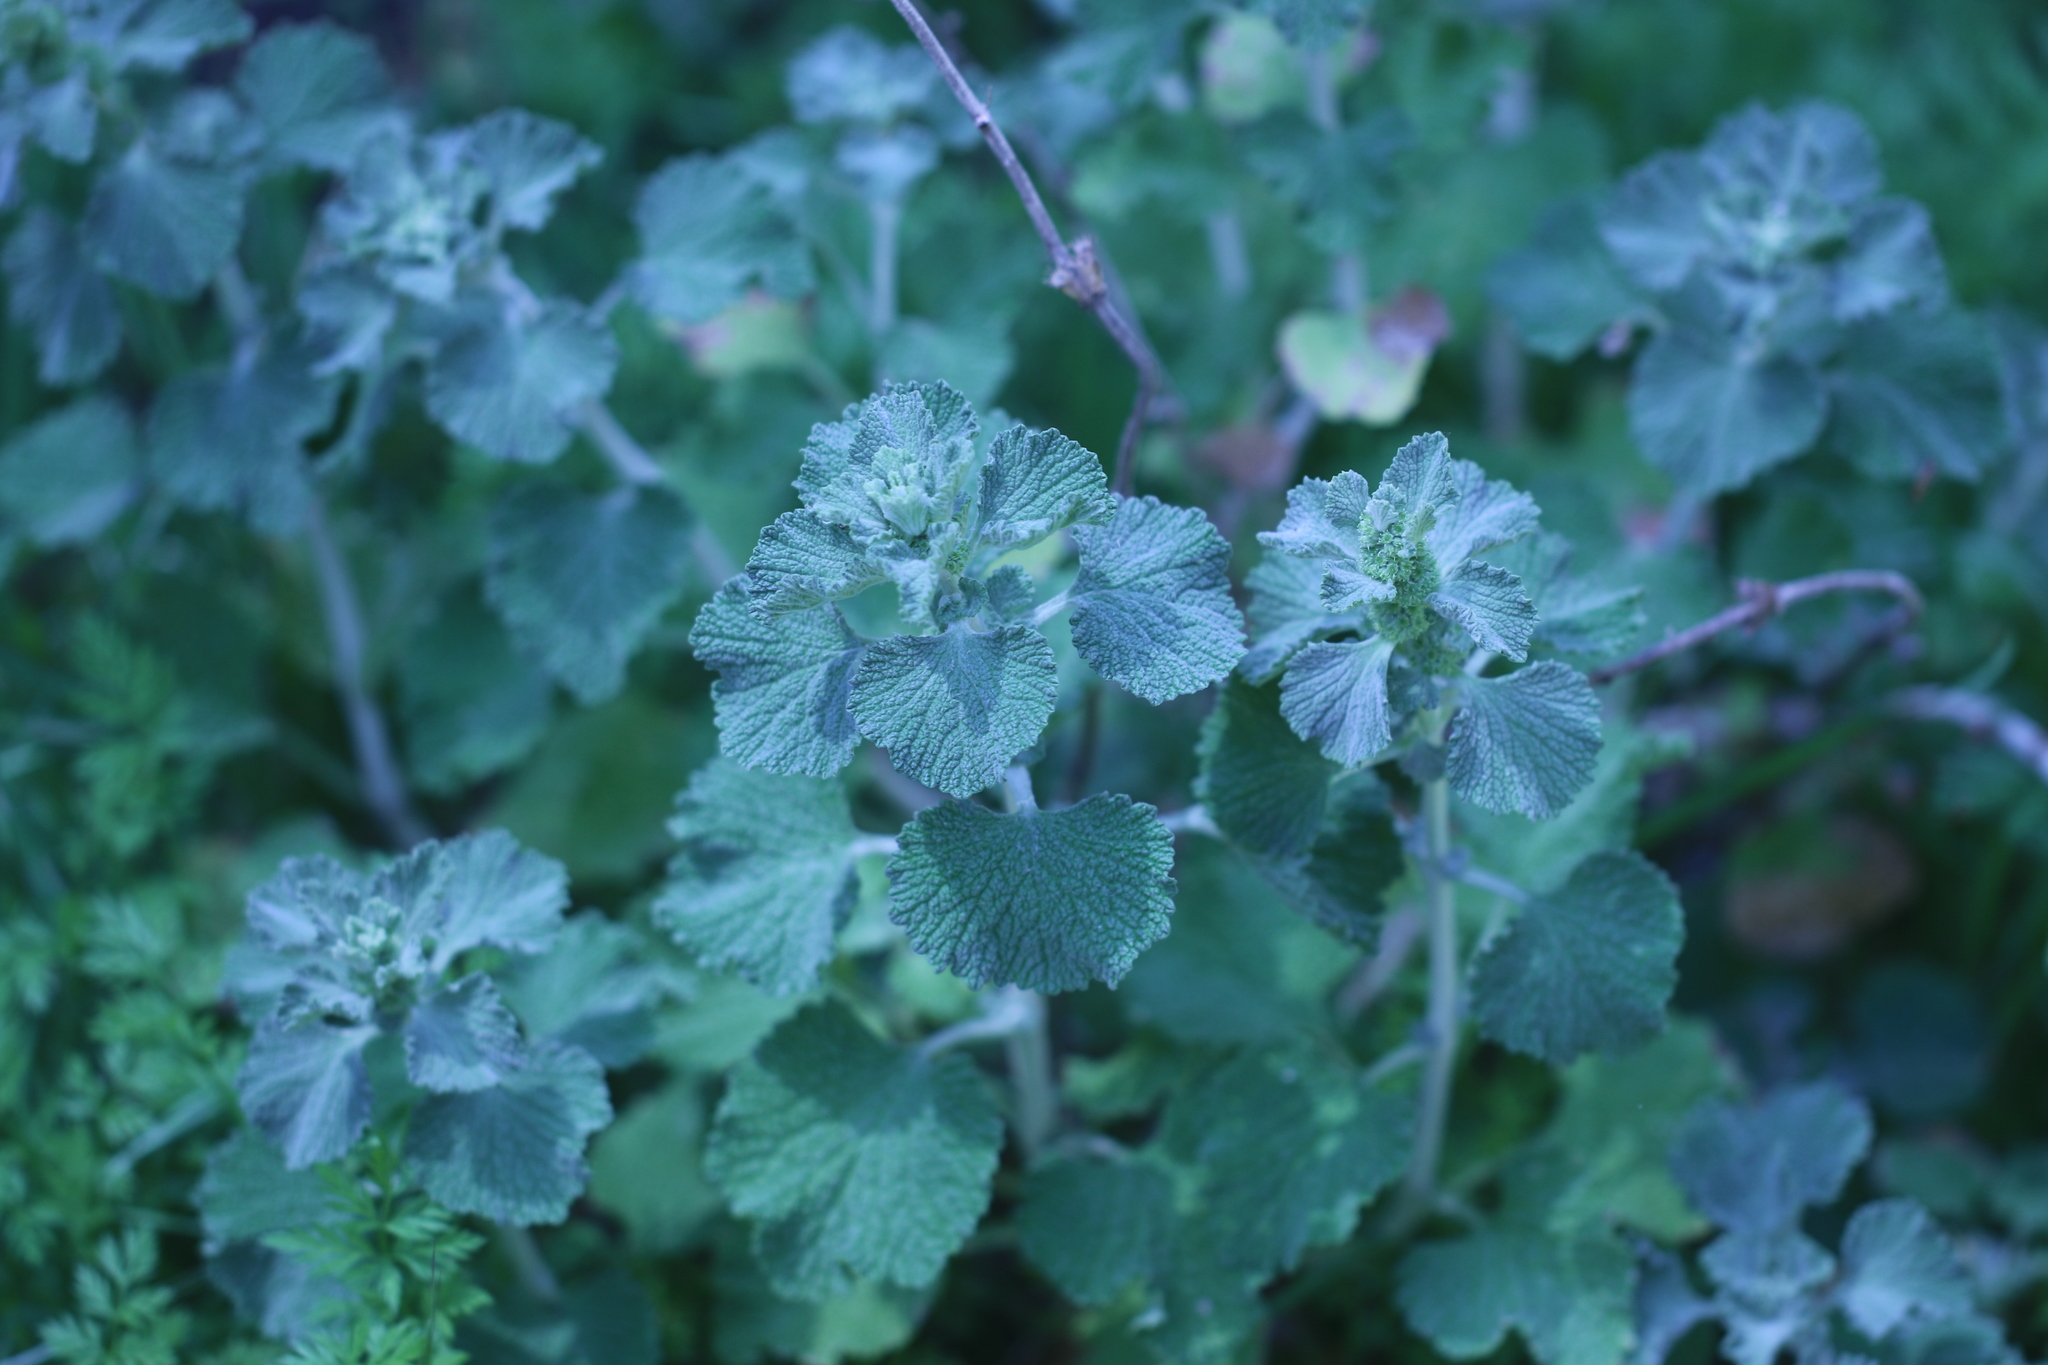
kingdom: Plantae
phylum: Tracheophyta
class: Magnoliopsida
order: Lamiales
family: Lamiaceae
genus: Marrubium
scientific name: Marrubium vulgare
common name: Horehound
